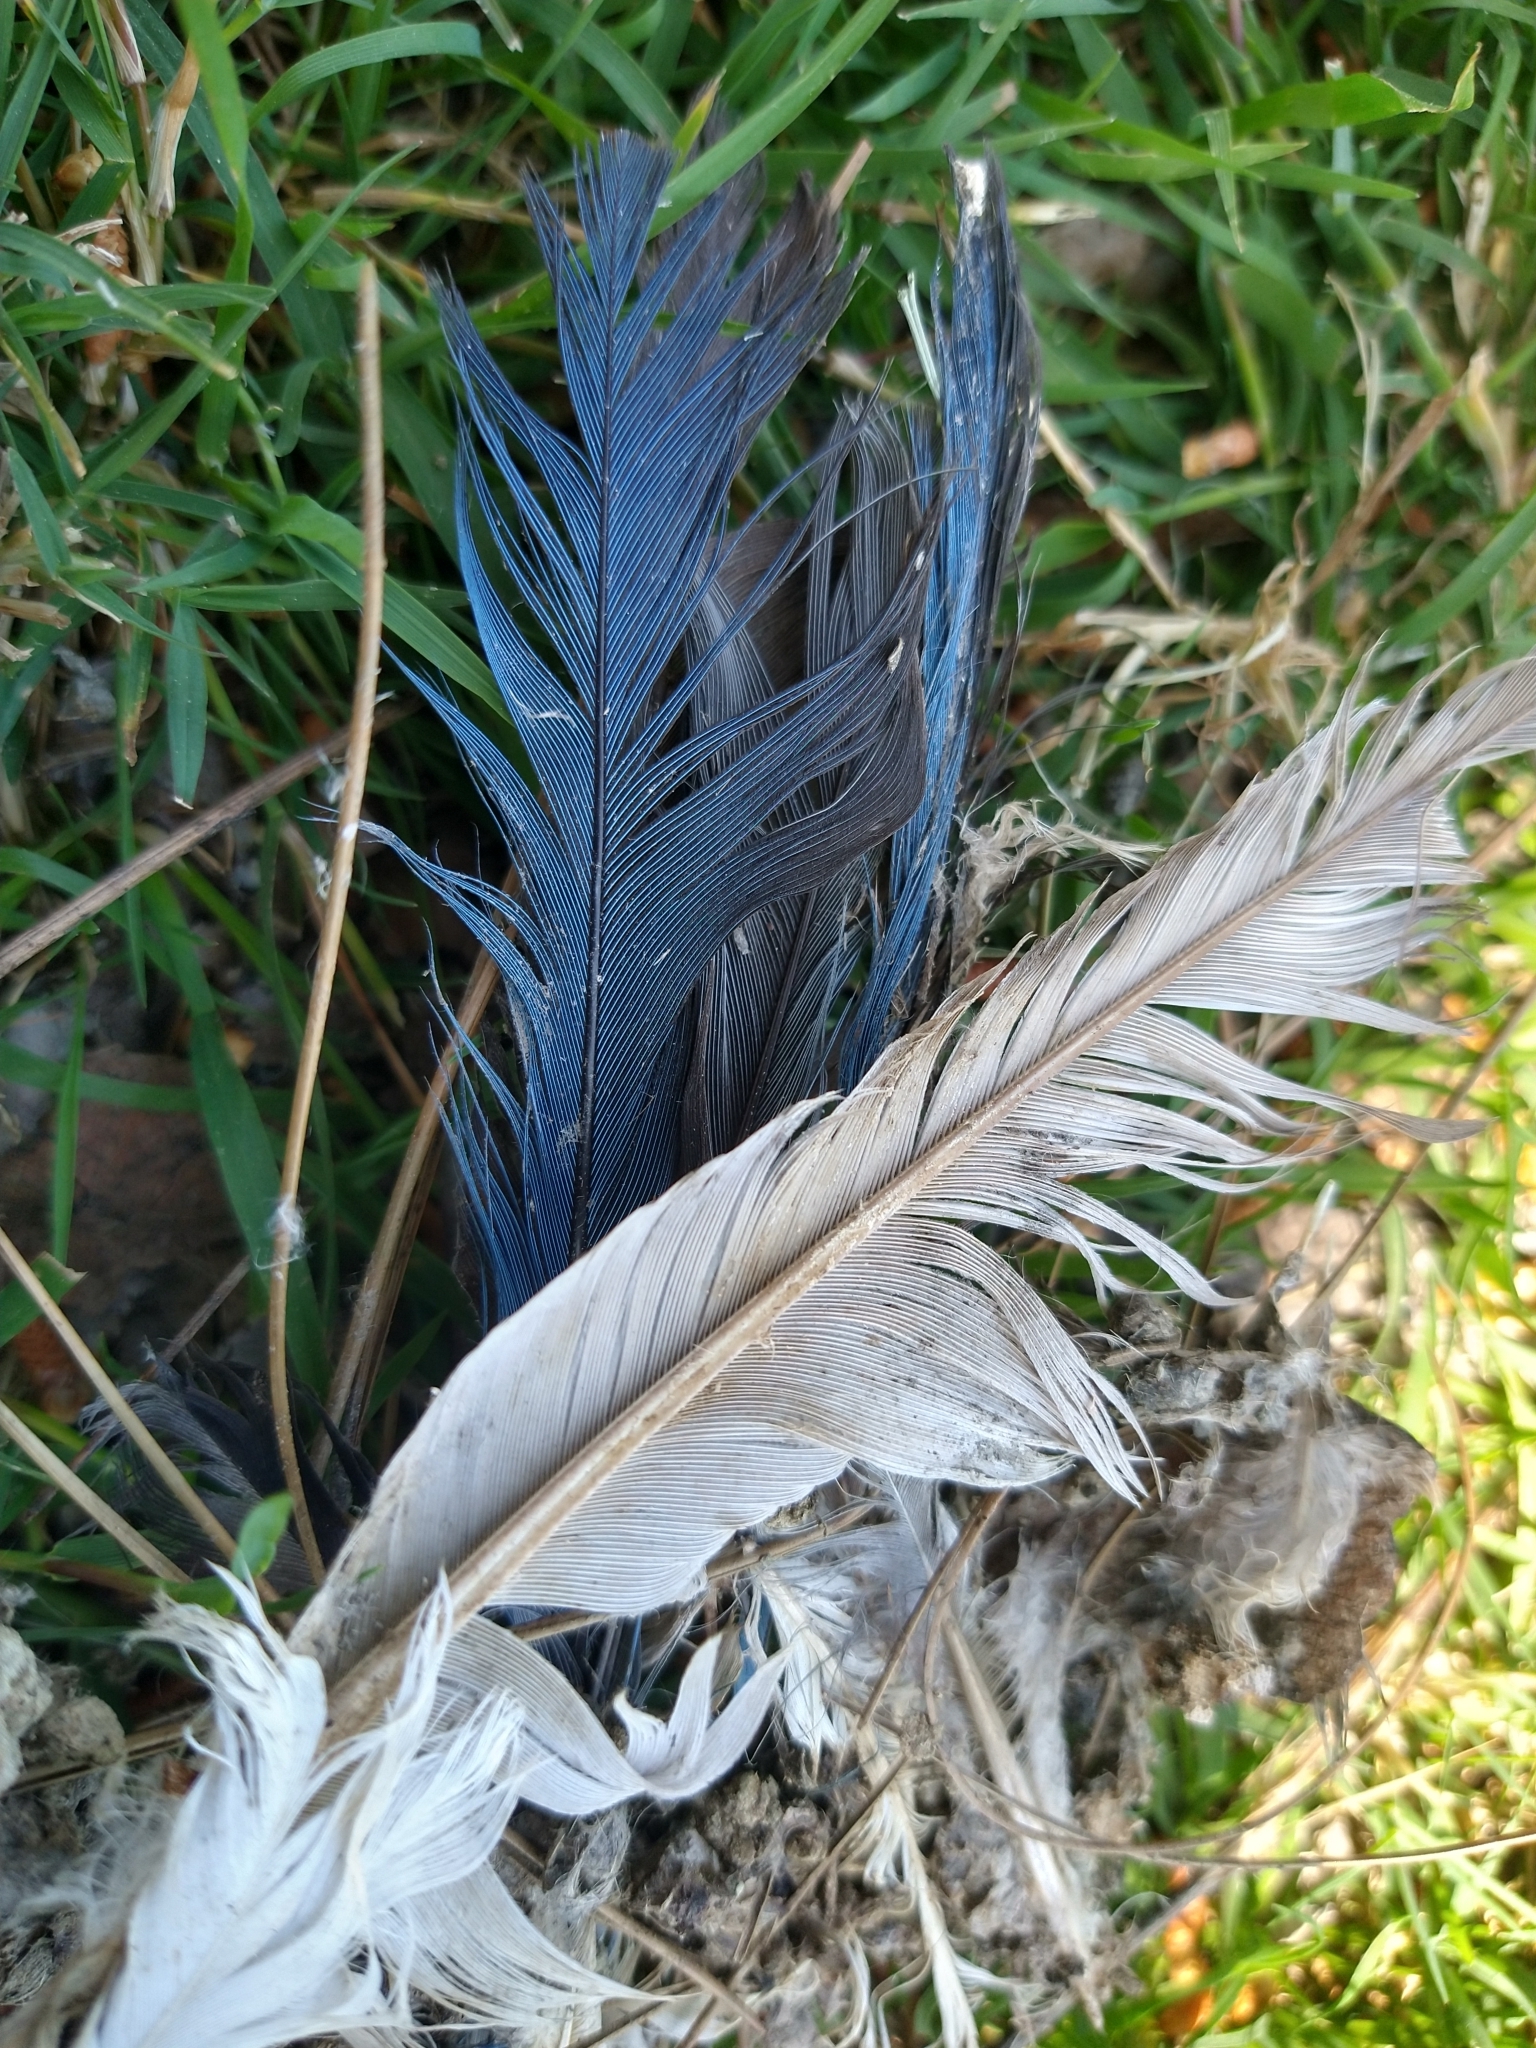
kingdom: Animalia
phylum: Chordata
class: Aves
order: Passeriformes
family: Corvidae
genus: Aphelocoma
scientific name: Aphelocoma californica
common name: California scrub-jay
